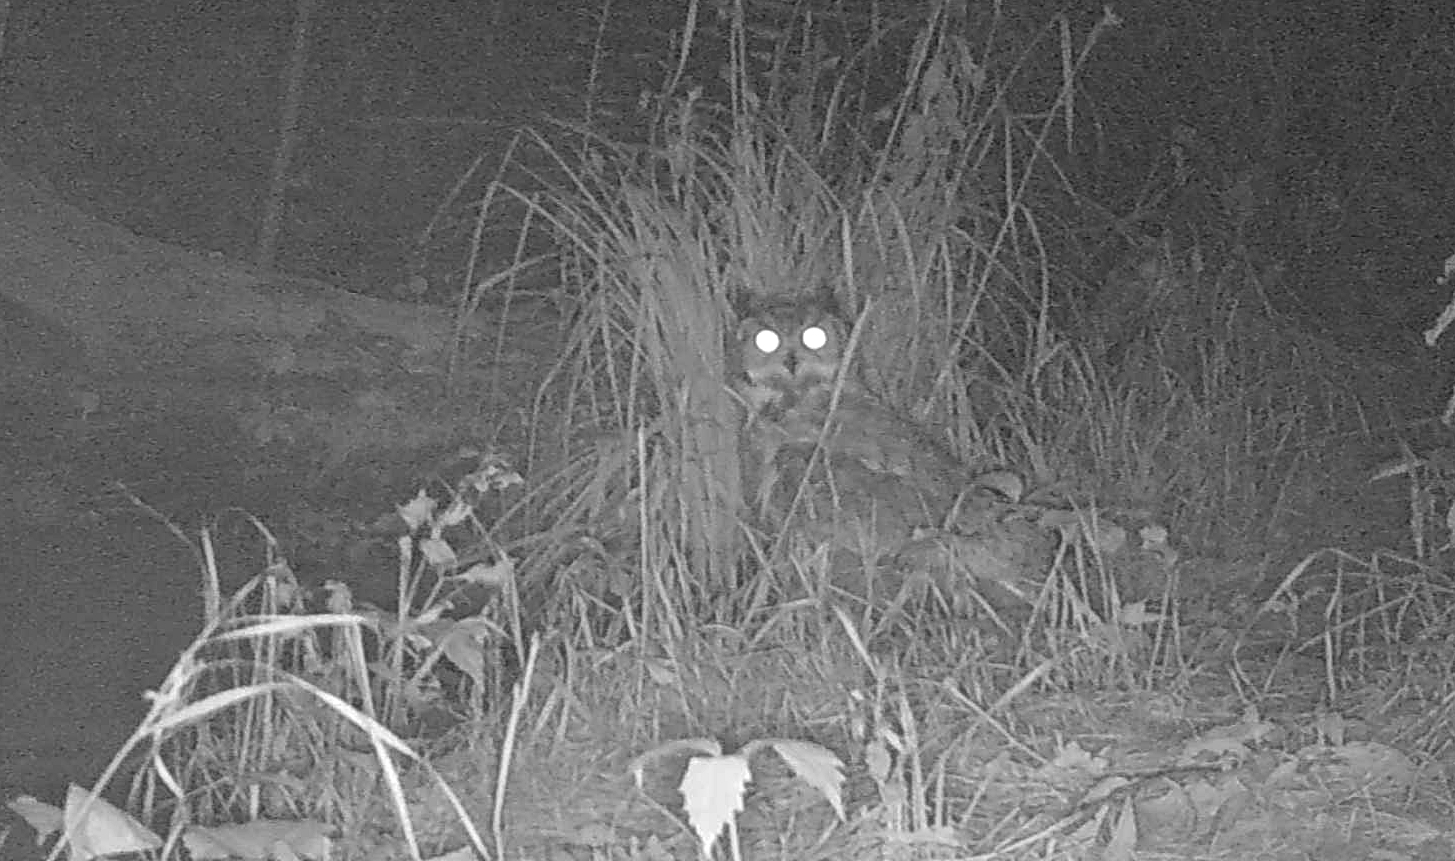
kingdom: Animalia
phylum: Chordata
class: Aves
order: Strigiformes
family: Strigidae
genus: Bubo
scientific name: Bubo virginianus
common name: Great horned owl
